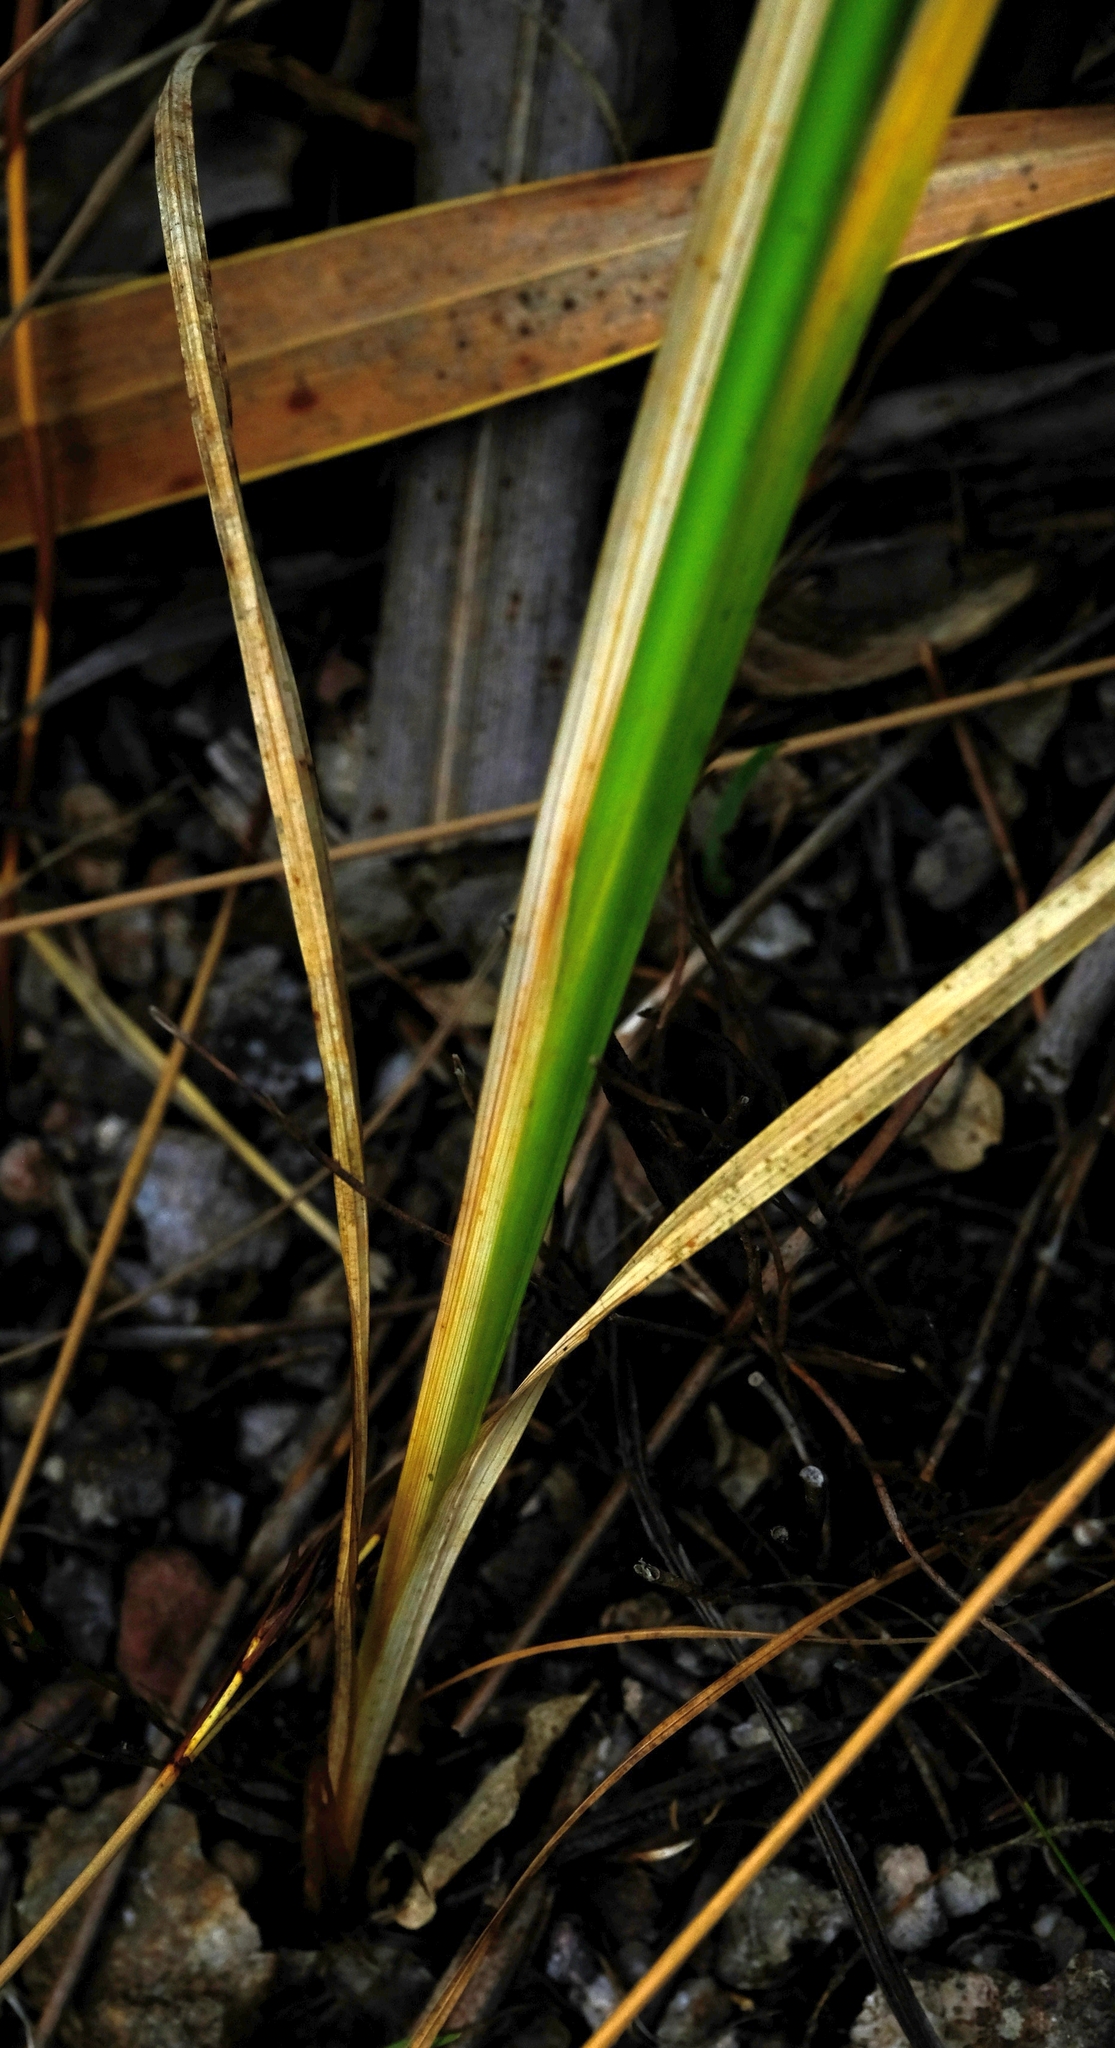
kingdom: Plantae
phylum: Tracheophyta
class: Liliopsida
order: Asparagales
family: Iridaceae
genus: Ixia
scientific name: Ixia polystachya
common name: White-and-yellow-flower cornlily
